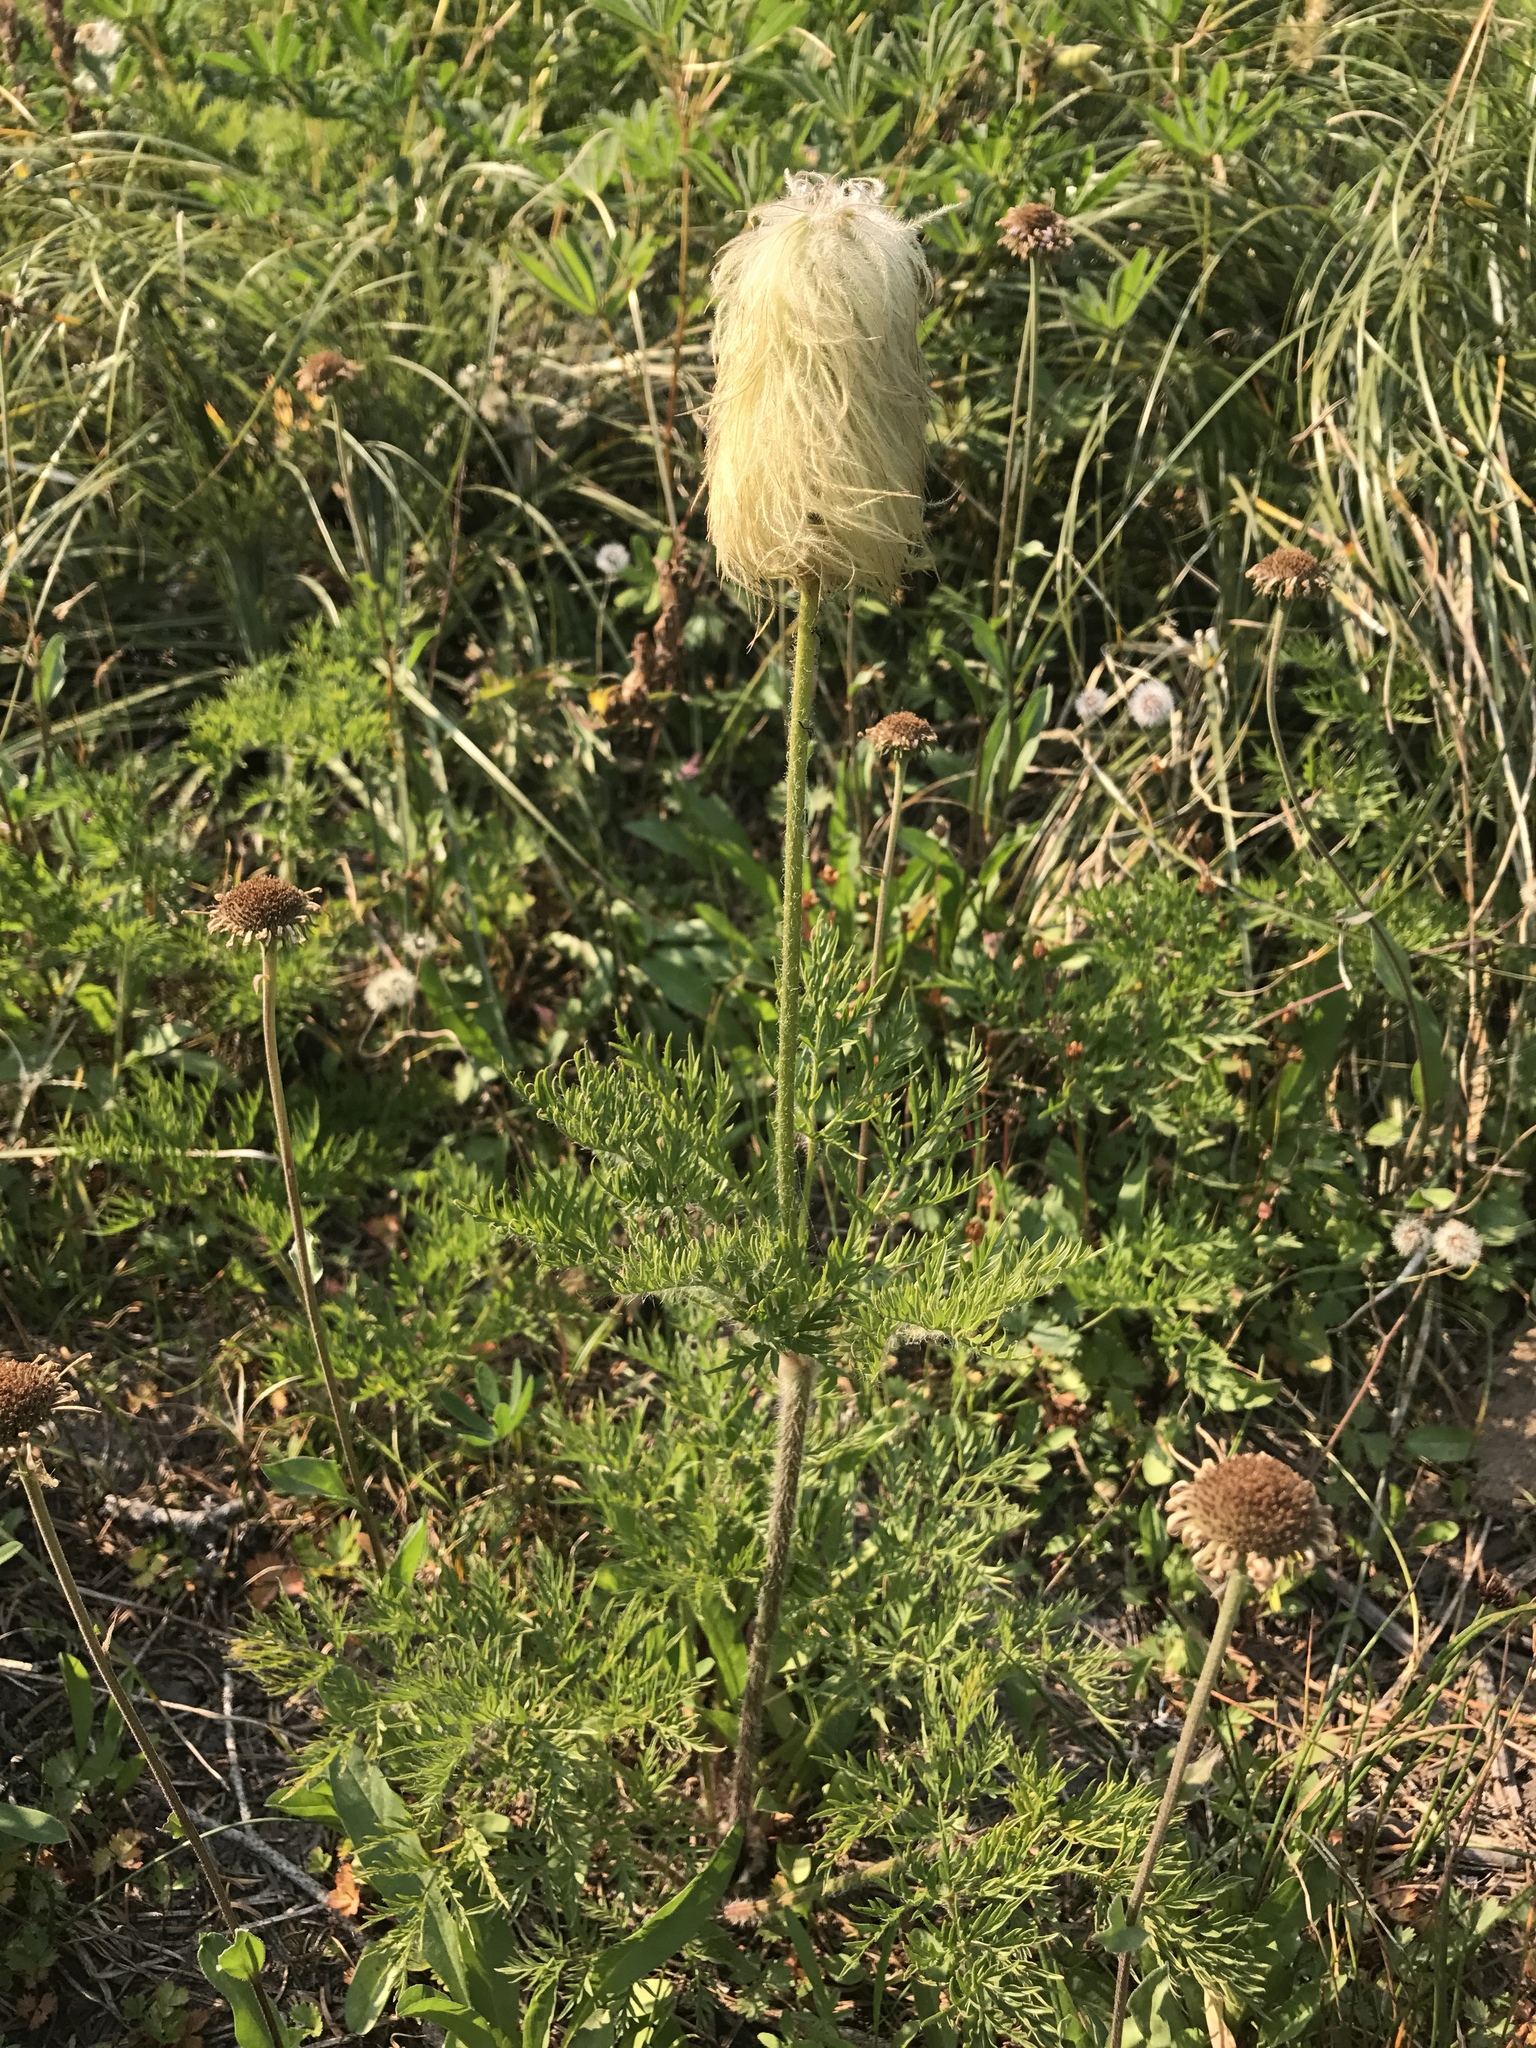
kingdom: Plantae
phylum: Tracheophyta
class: Magnoliopsida
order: Ranunculales
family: Ranunculaceae
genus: Pulsatilla
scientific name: Pulsatilla occidentalis
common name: Mountain pasqueflower
